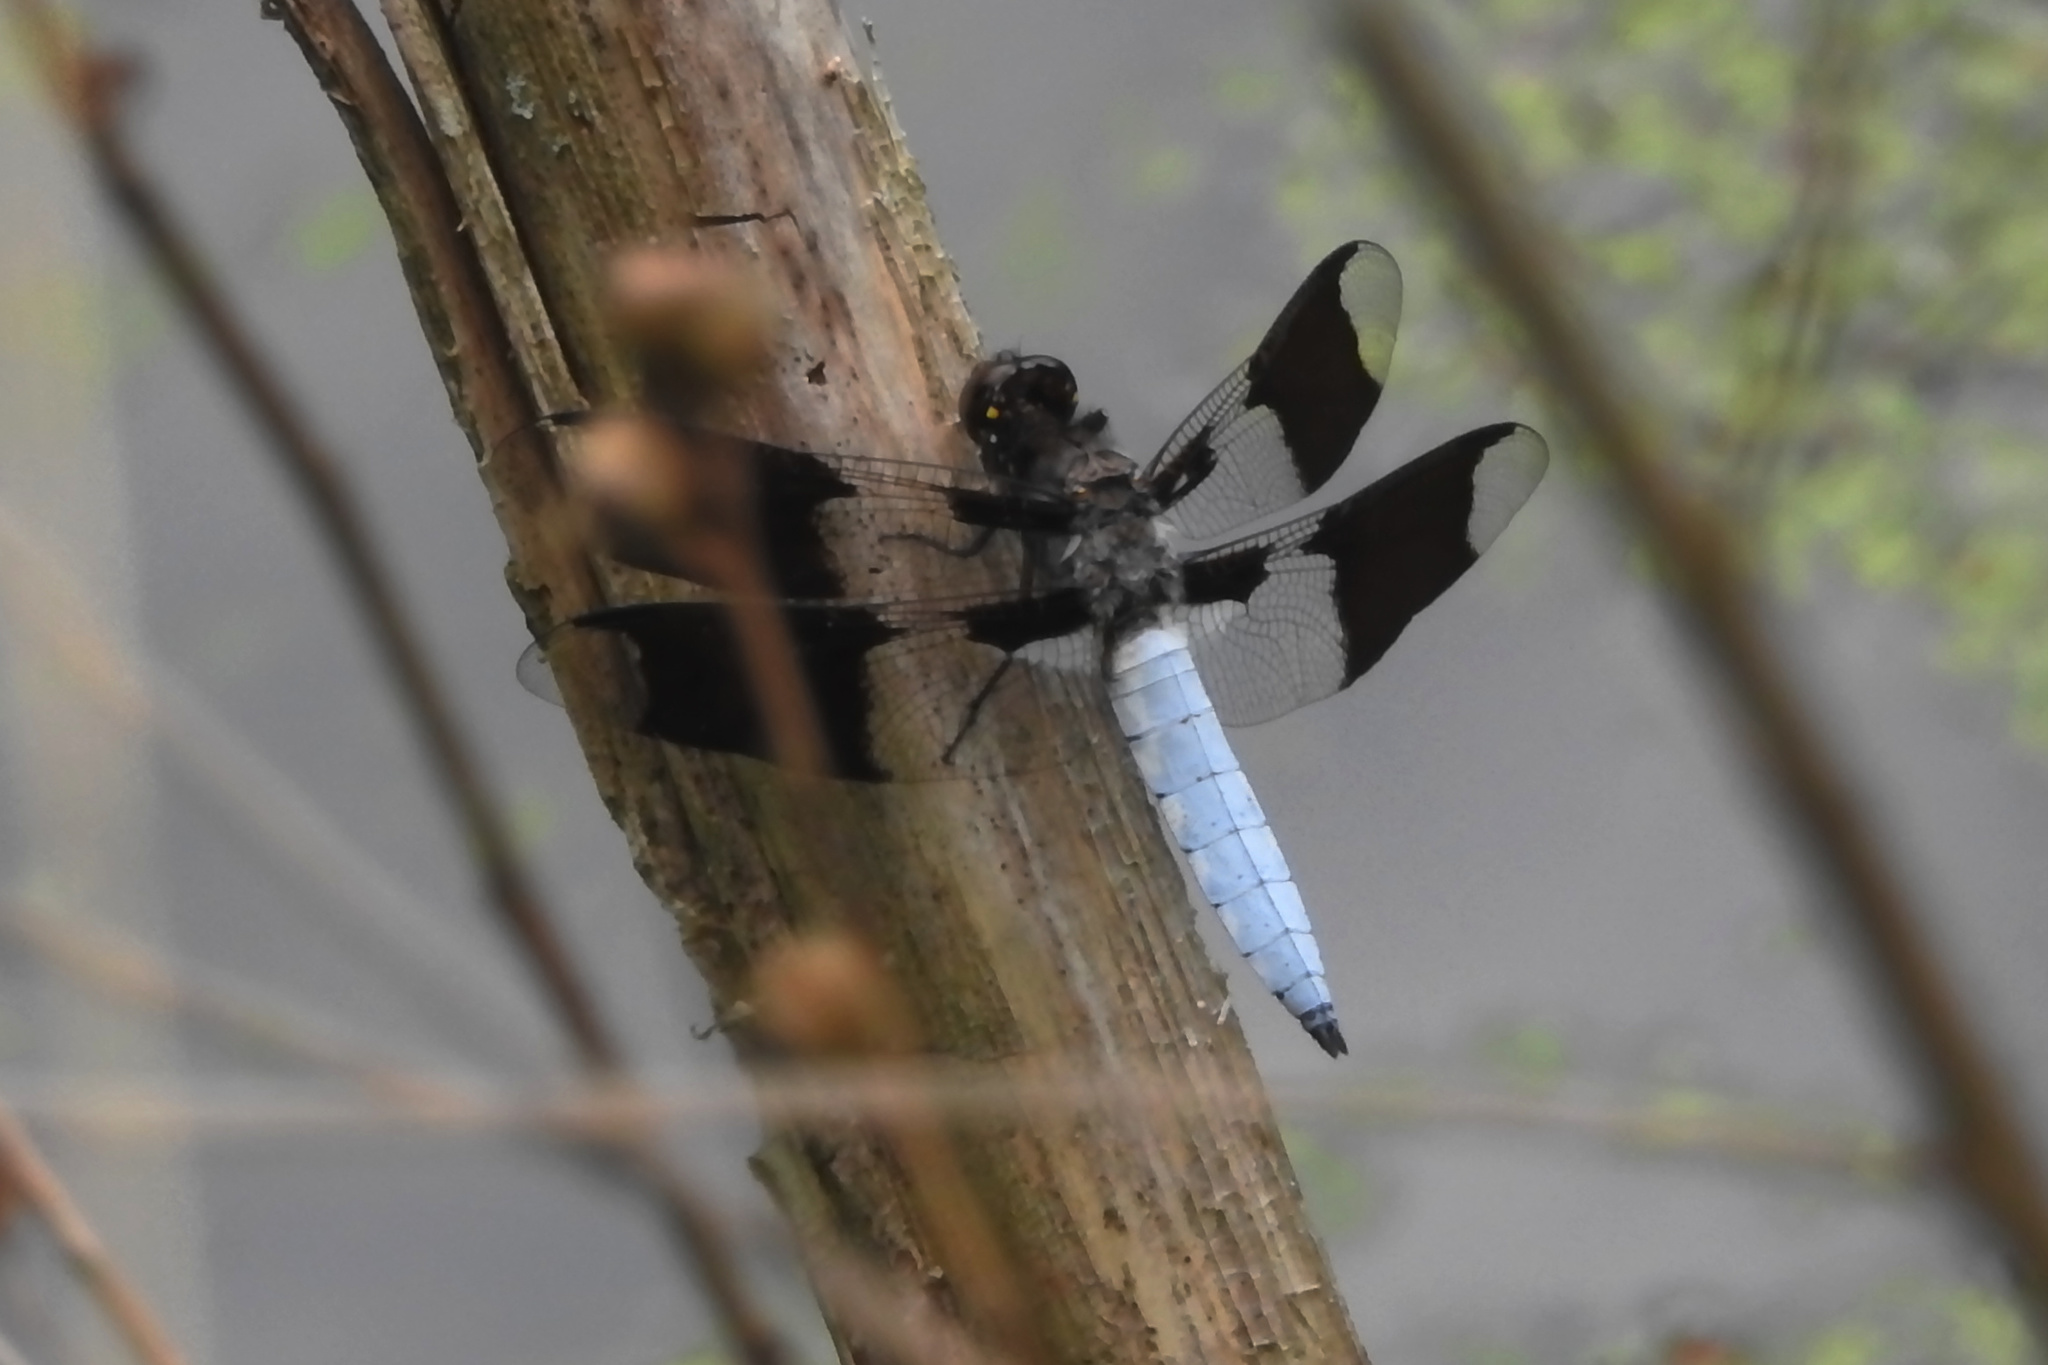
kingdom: Animalia
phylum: Arthropoda
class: Insecta
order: Odonata
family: Libellulidae
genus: Plathemis
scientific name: Plathemis lydia
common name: Common whitetail
